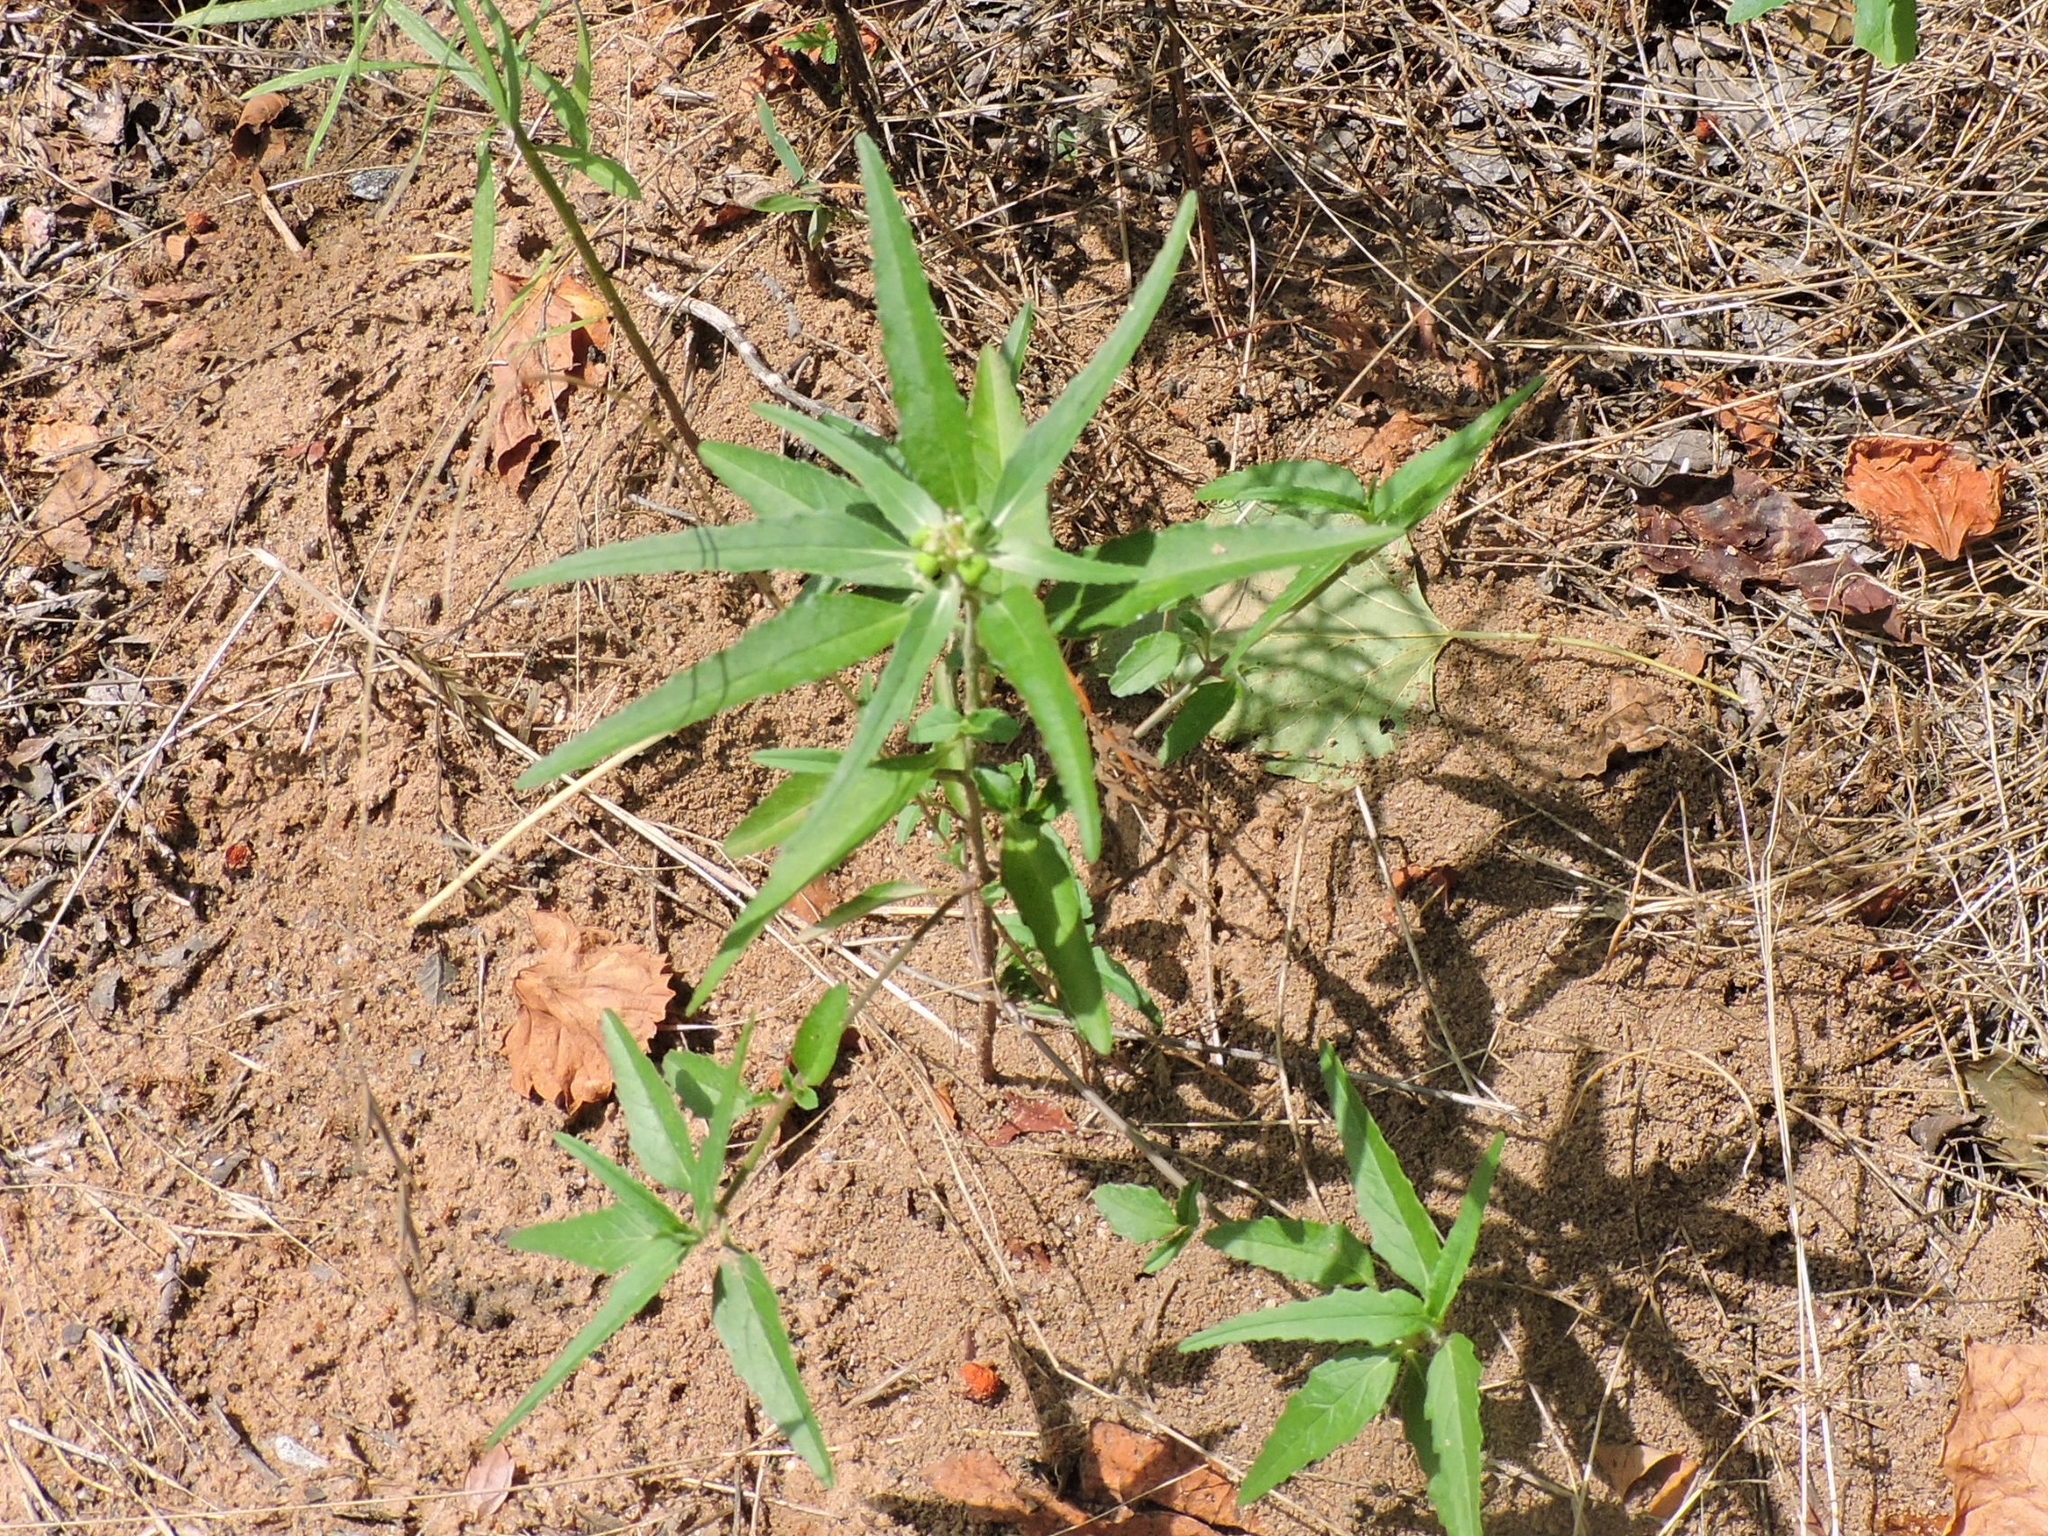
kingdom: Plantae
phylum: Tracheophyta
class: Magnoliopsida
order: Malpighiales
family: Euphorbiaceae
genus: Euphorbia
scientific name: Euphorbia dentata
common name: Dentate spurge
